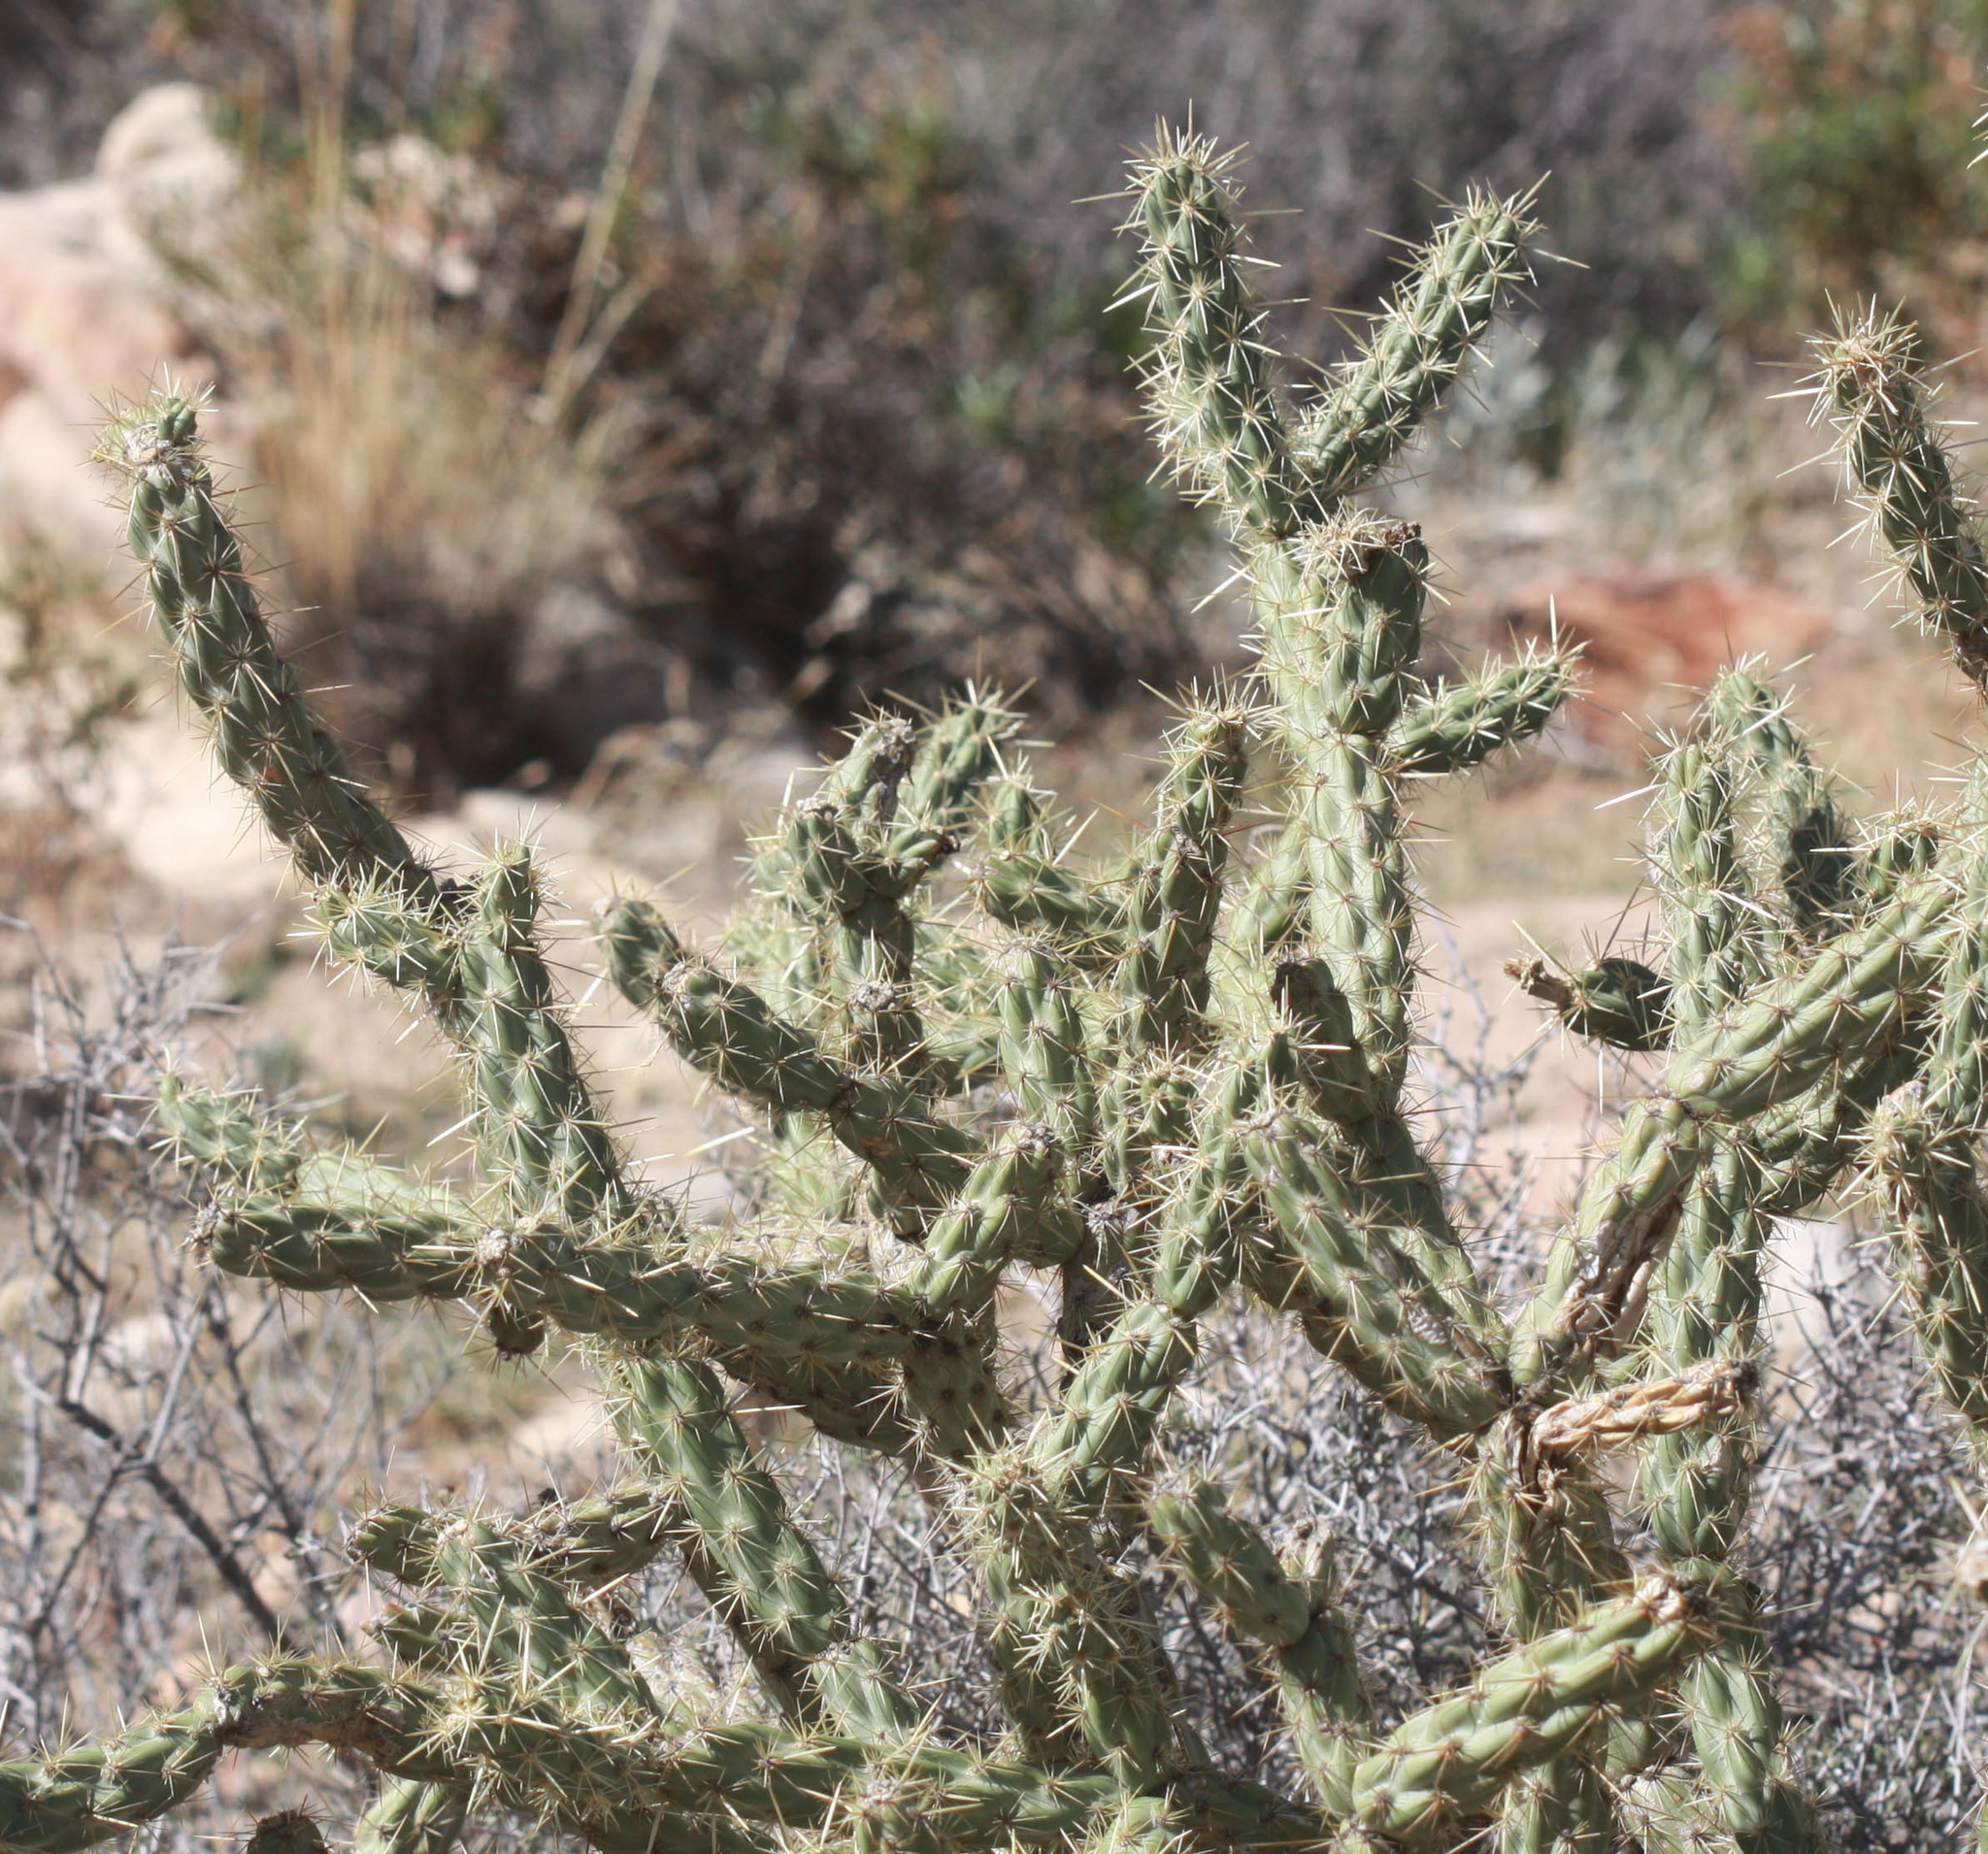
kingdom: Plantae
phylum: Tracheophyta
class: Magnoliopsida
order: Caryophyllales
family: Cactaceae
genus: Cylindropuntia
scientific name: Cylindropuntia acanthocarpa
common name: Buckhorn cholla
